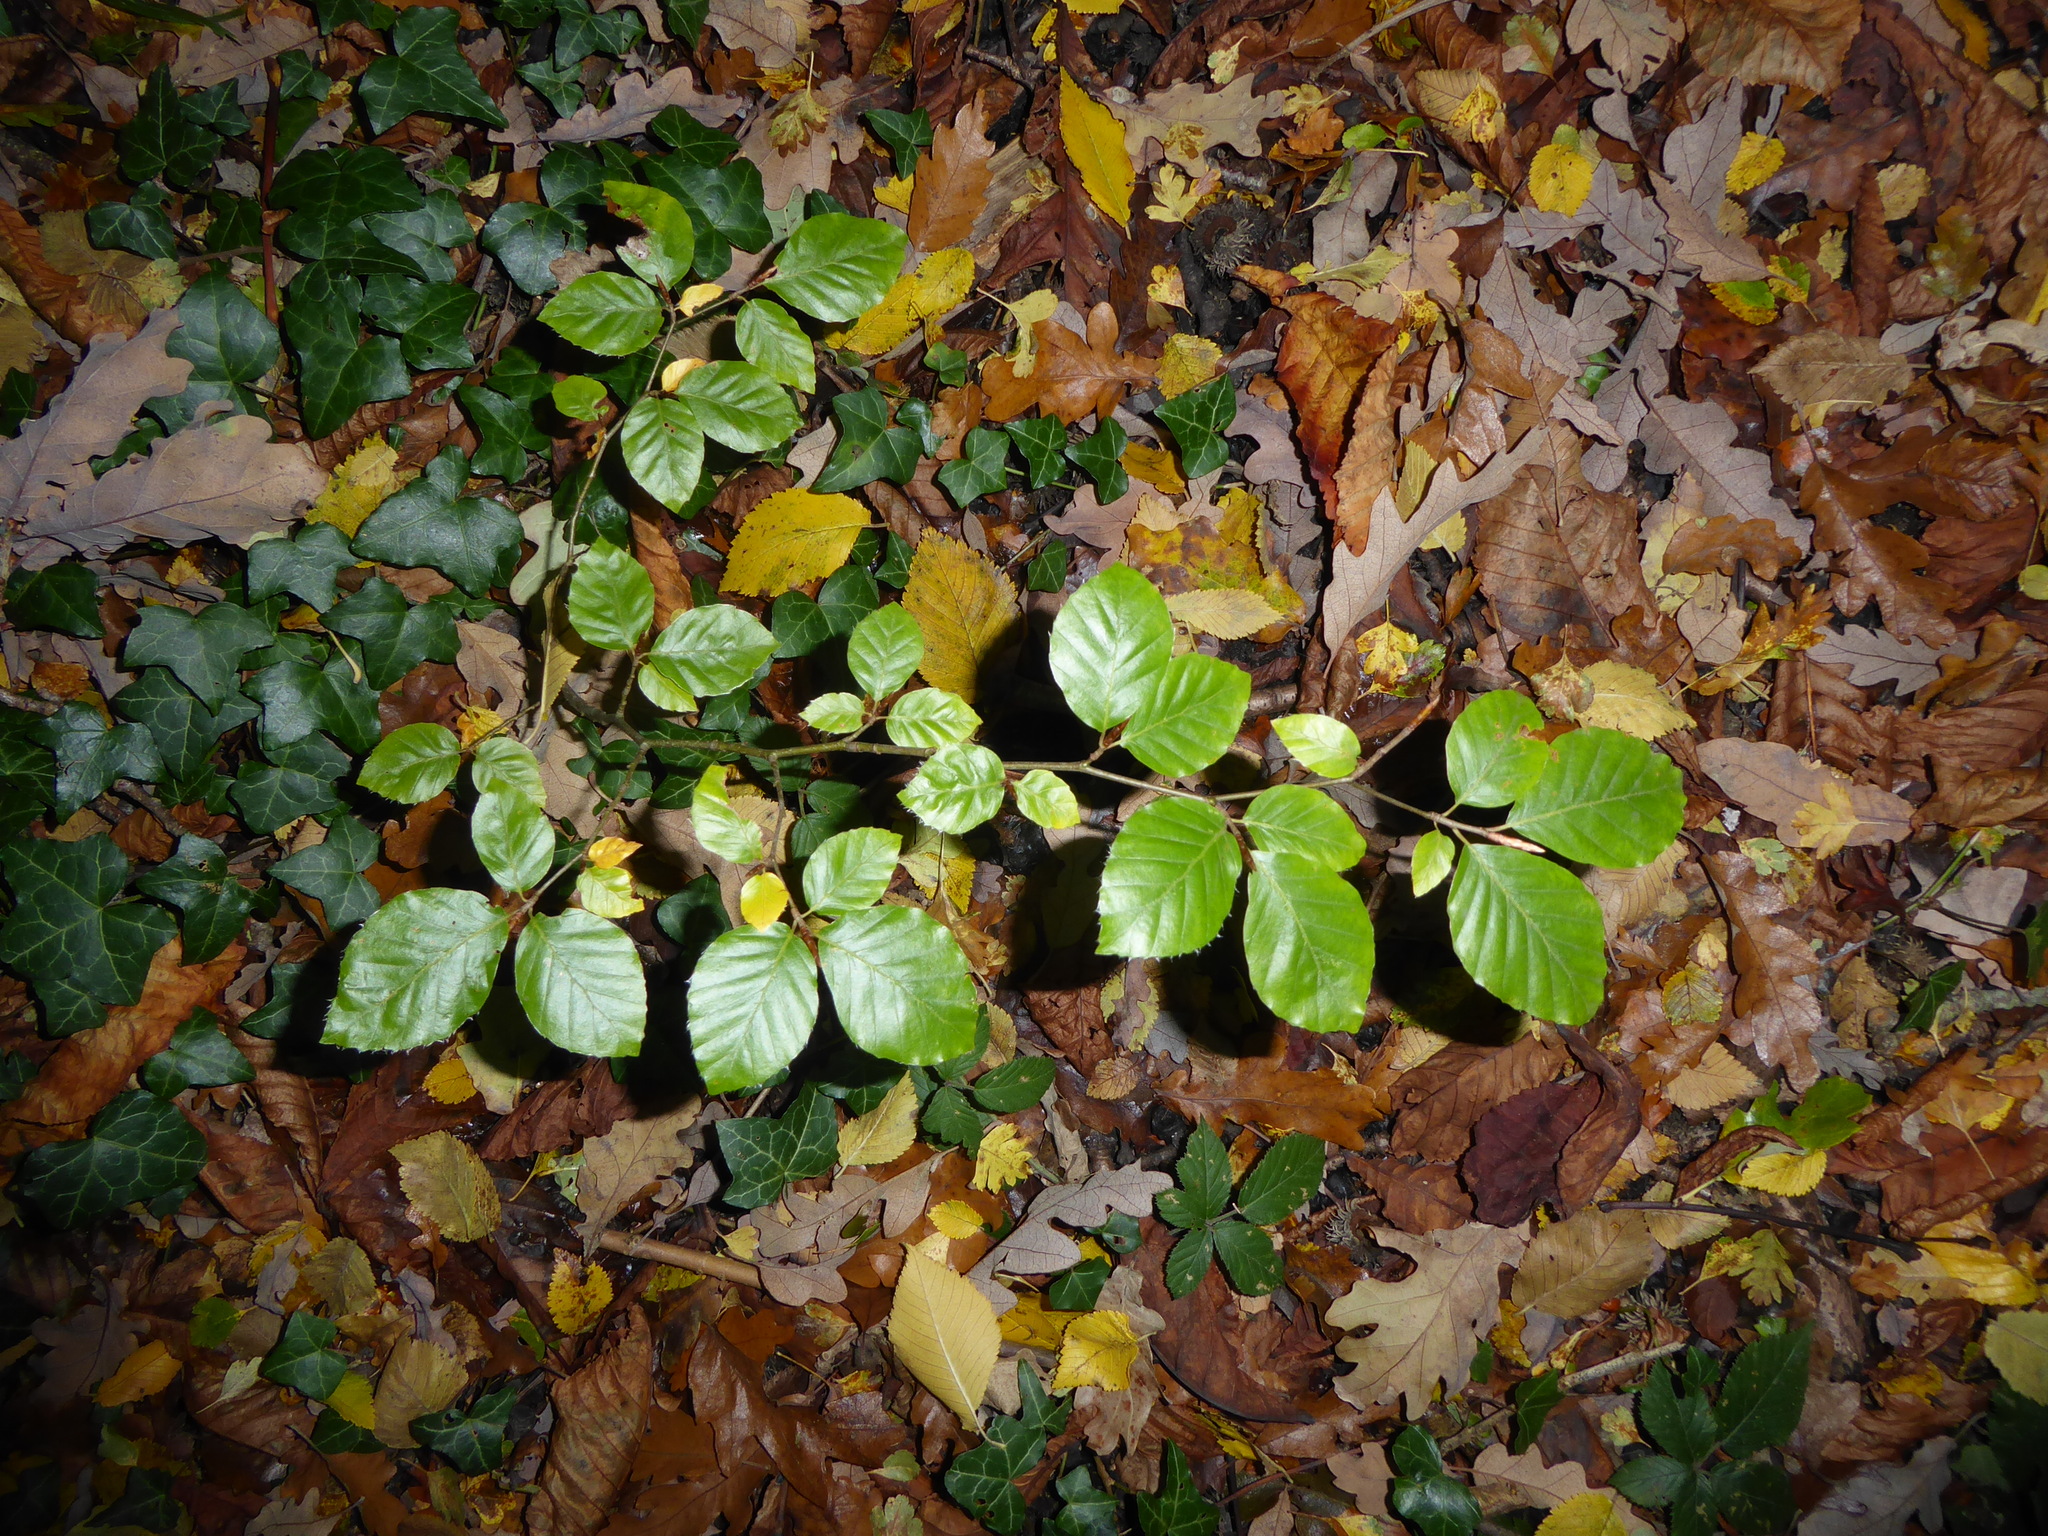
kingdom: Plantae
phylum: Tracheophyta
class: Magnoliopsida
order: Fagales
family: Fagaceae
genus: Fagus
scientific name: Fagus sylvatica
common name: Beech
